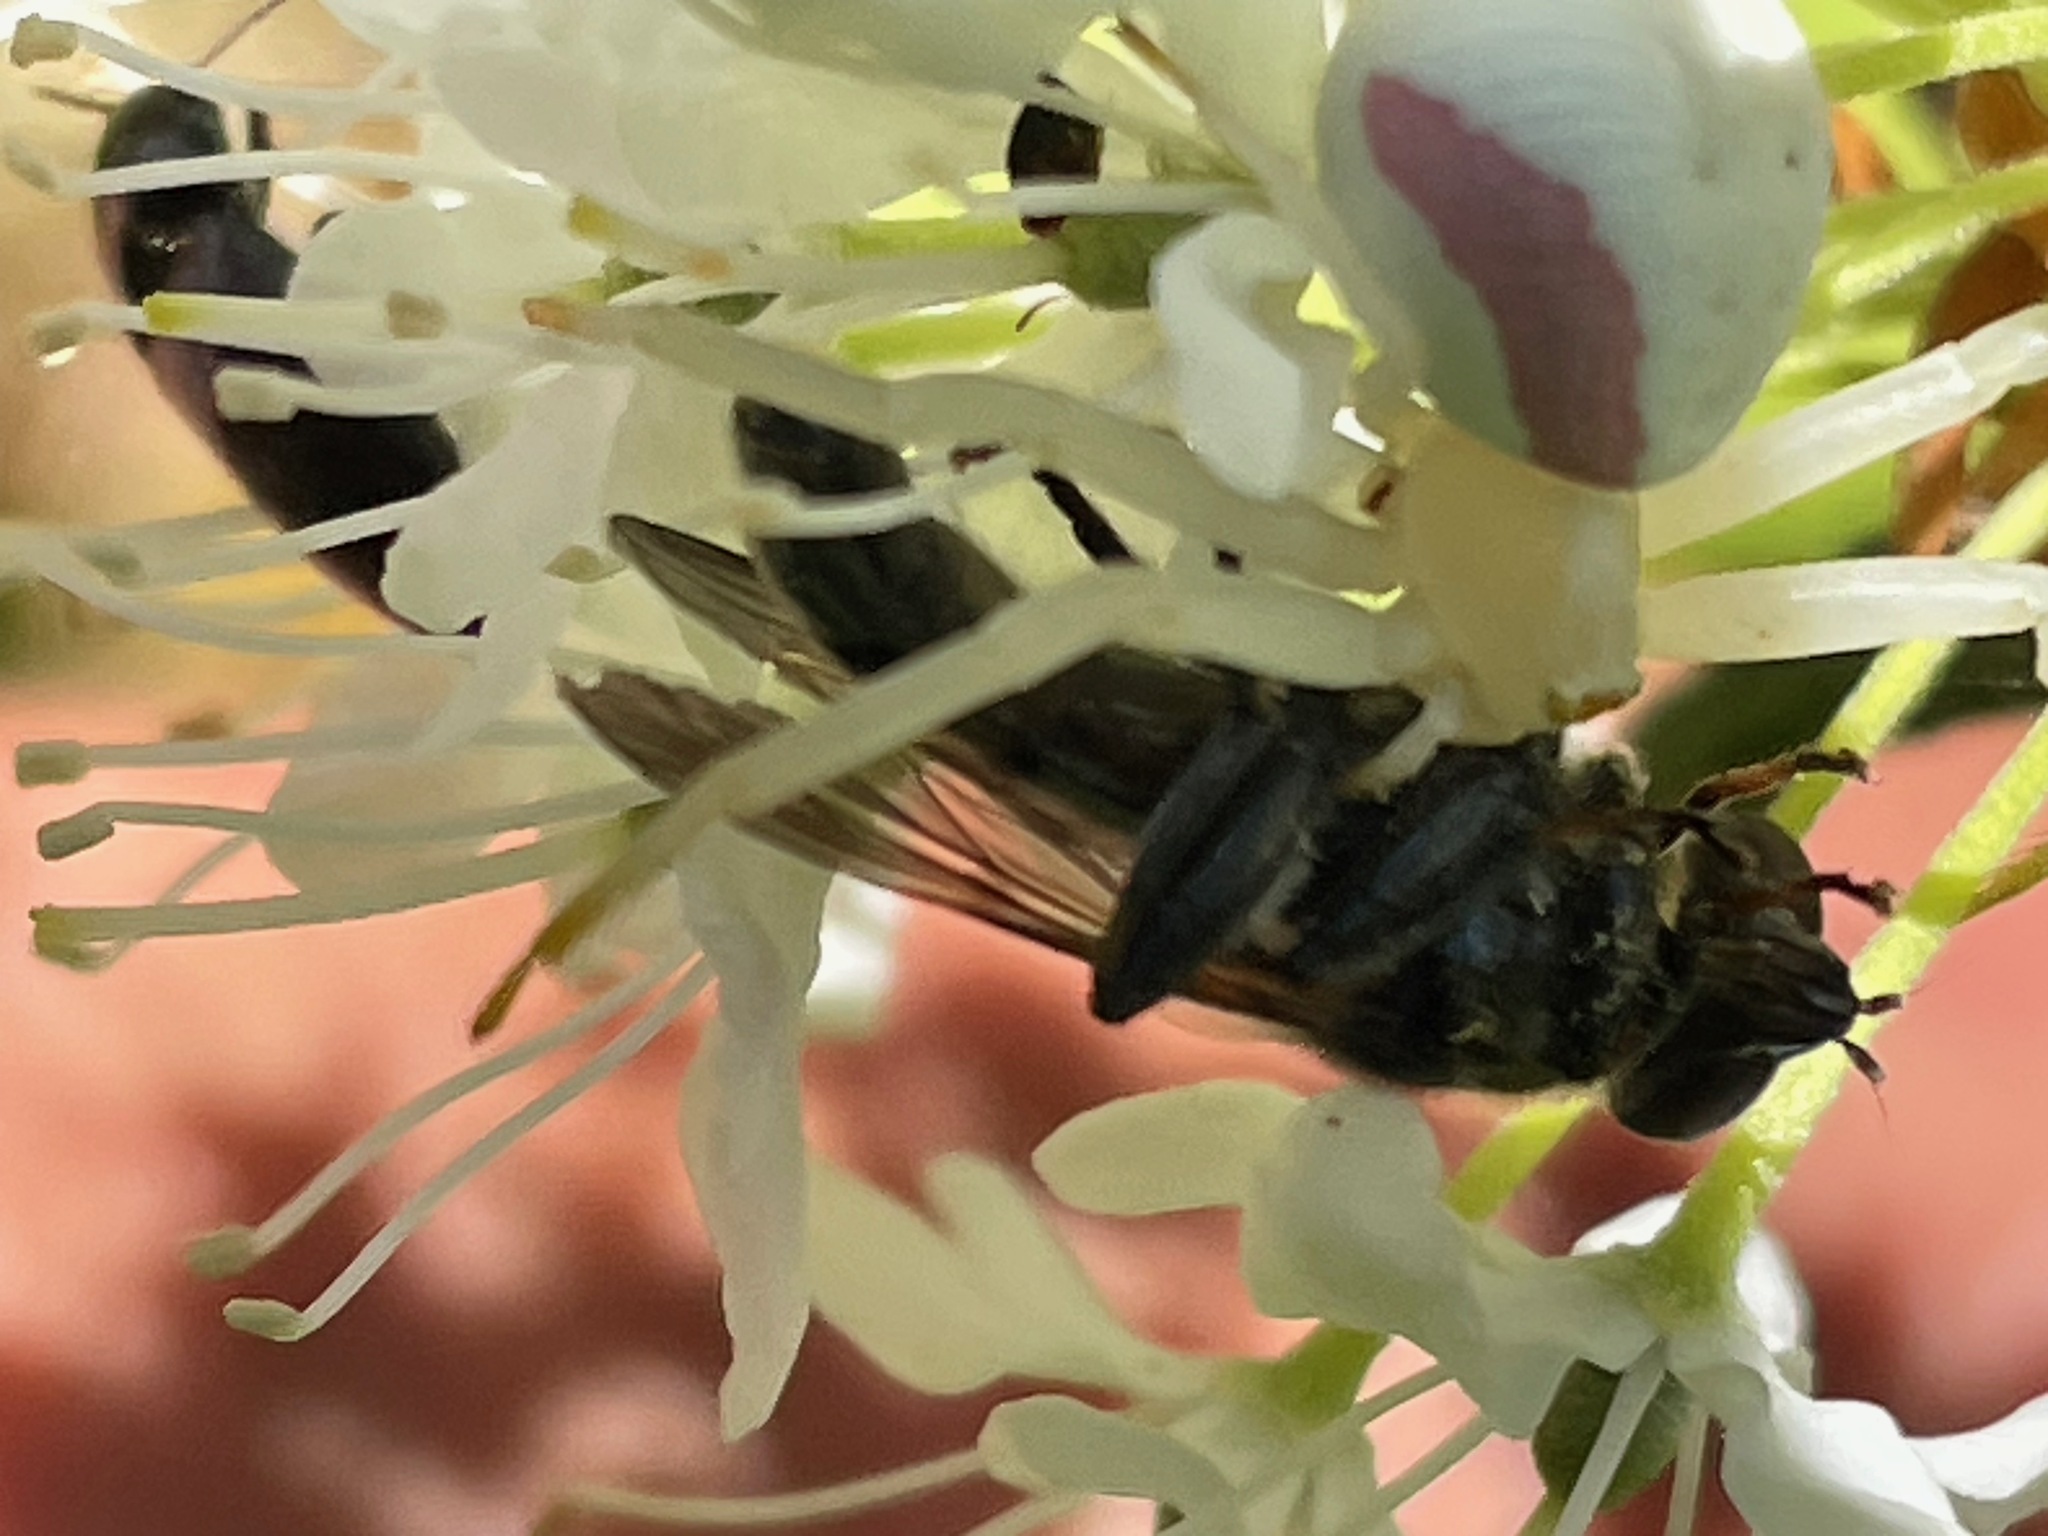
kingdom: Animalia
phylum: Arthropoda
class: Arachnida
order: Araneae
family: Thomisidae
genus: Misumena
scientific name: Misumena vatia
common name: Goldenrod crab spider
